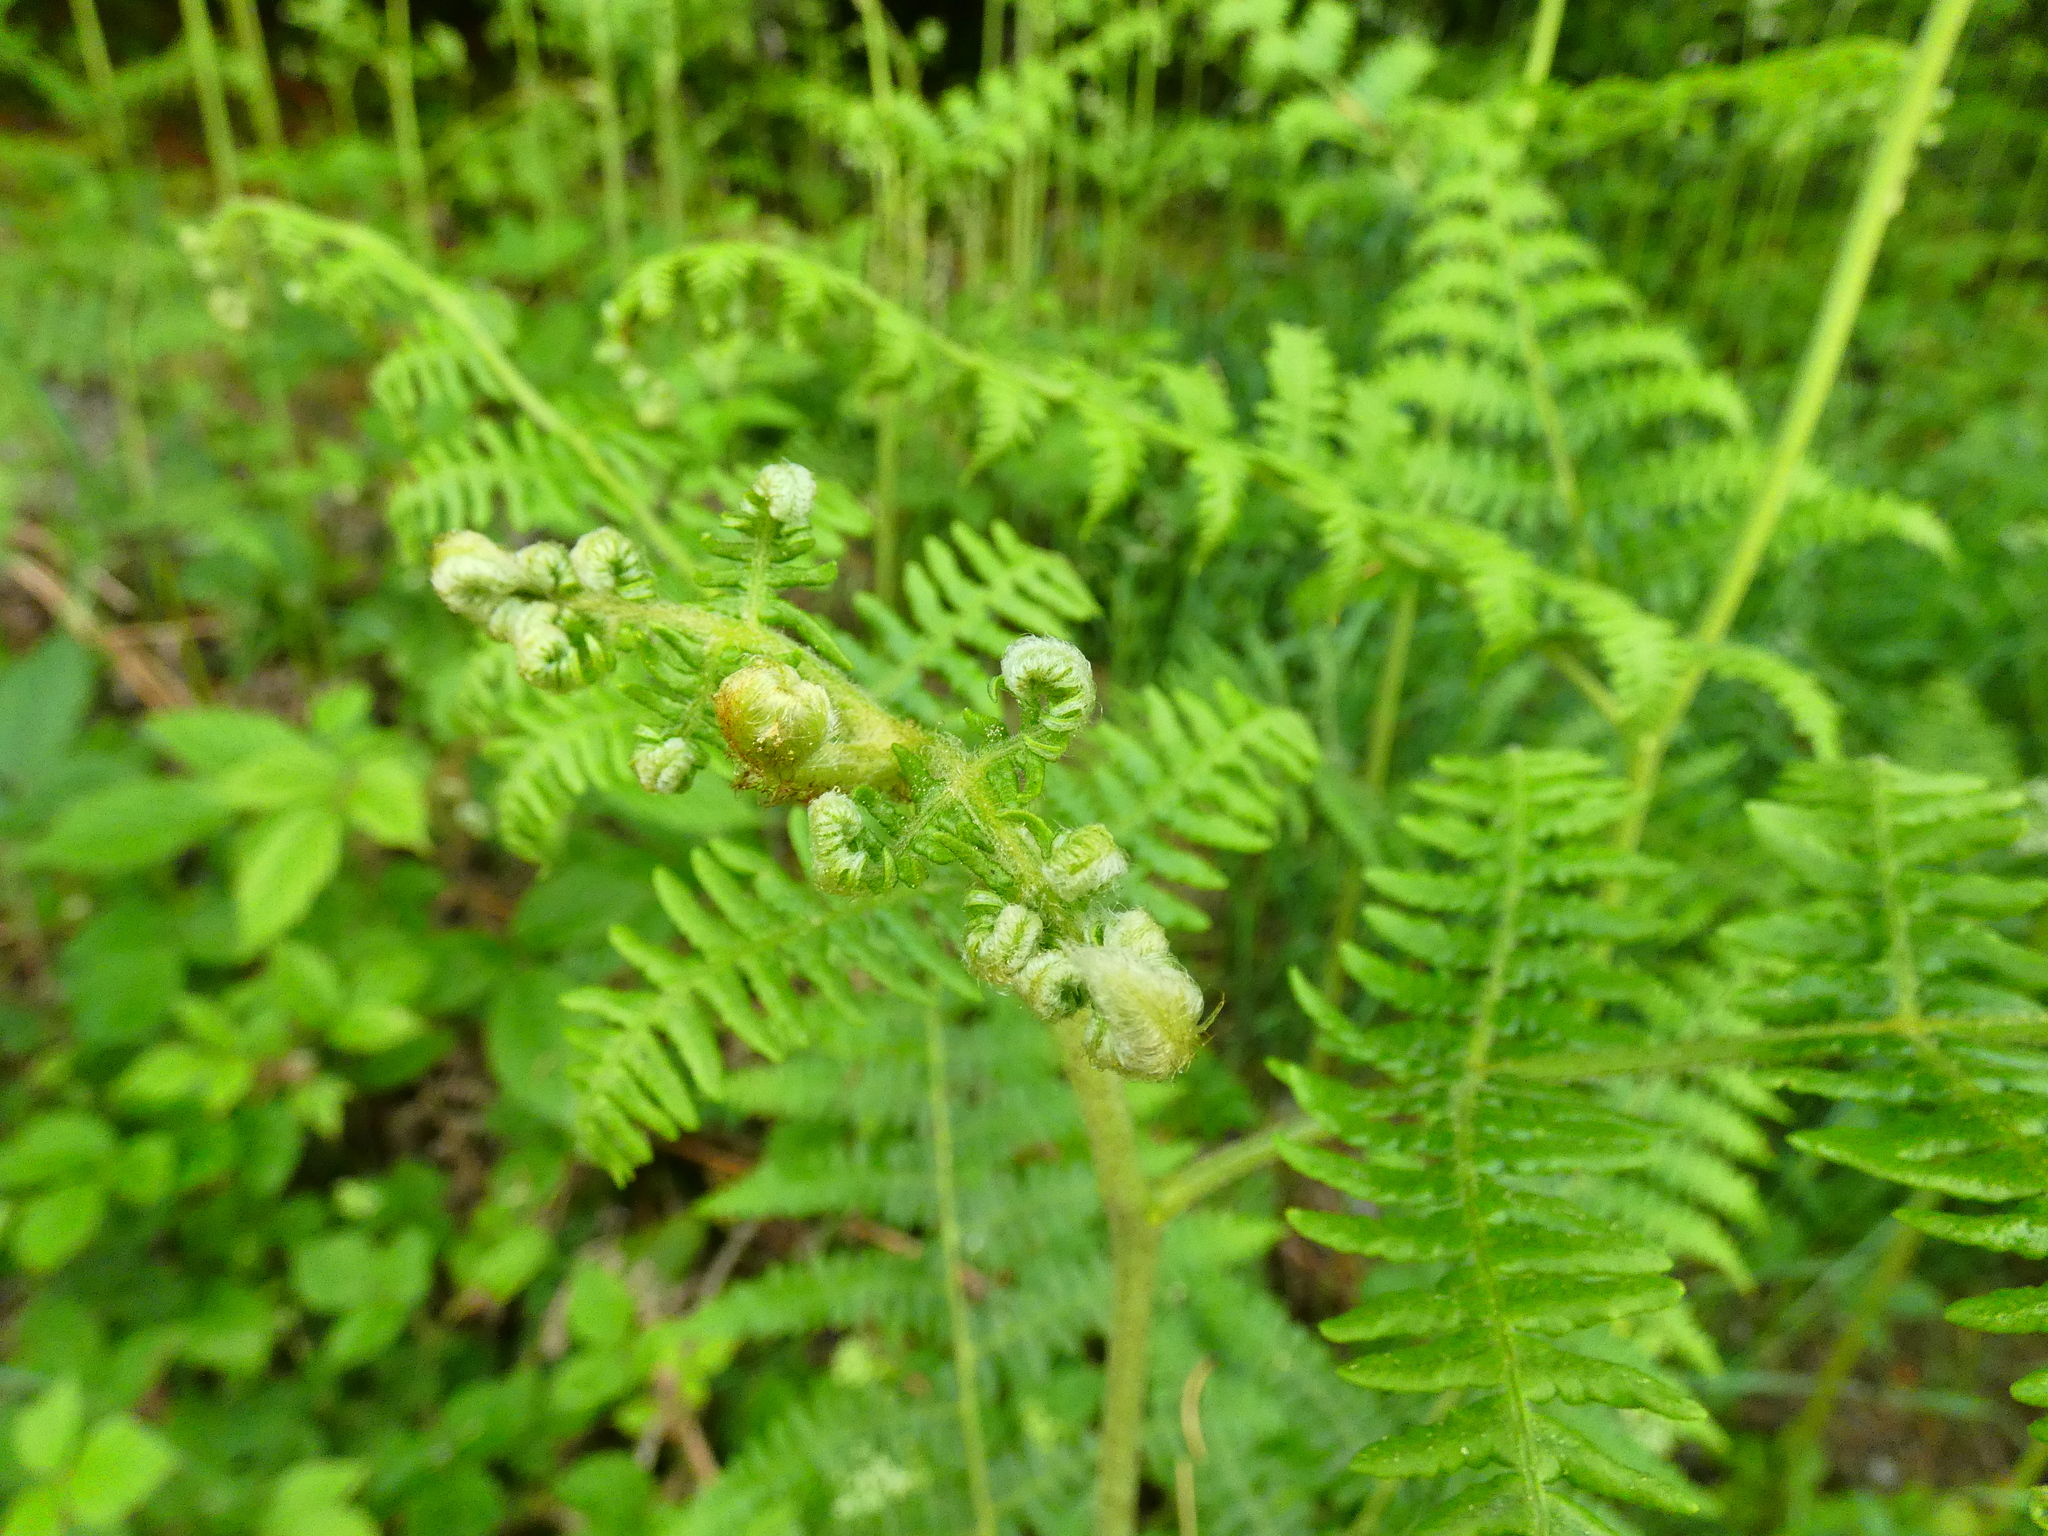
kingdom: Plantae
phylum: Tracheophyta
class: Polypodiopsida
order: Polypodiales
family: Dennstaedtiaceae
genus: Pteridium
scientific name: Pteridium aquilinum
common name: Bracken
